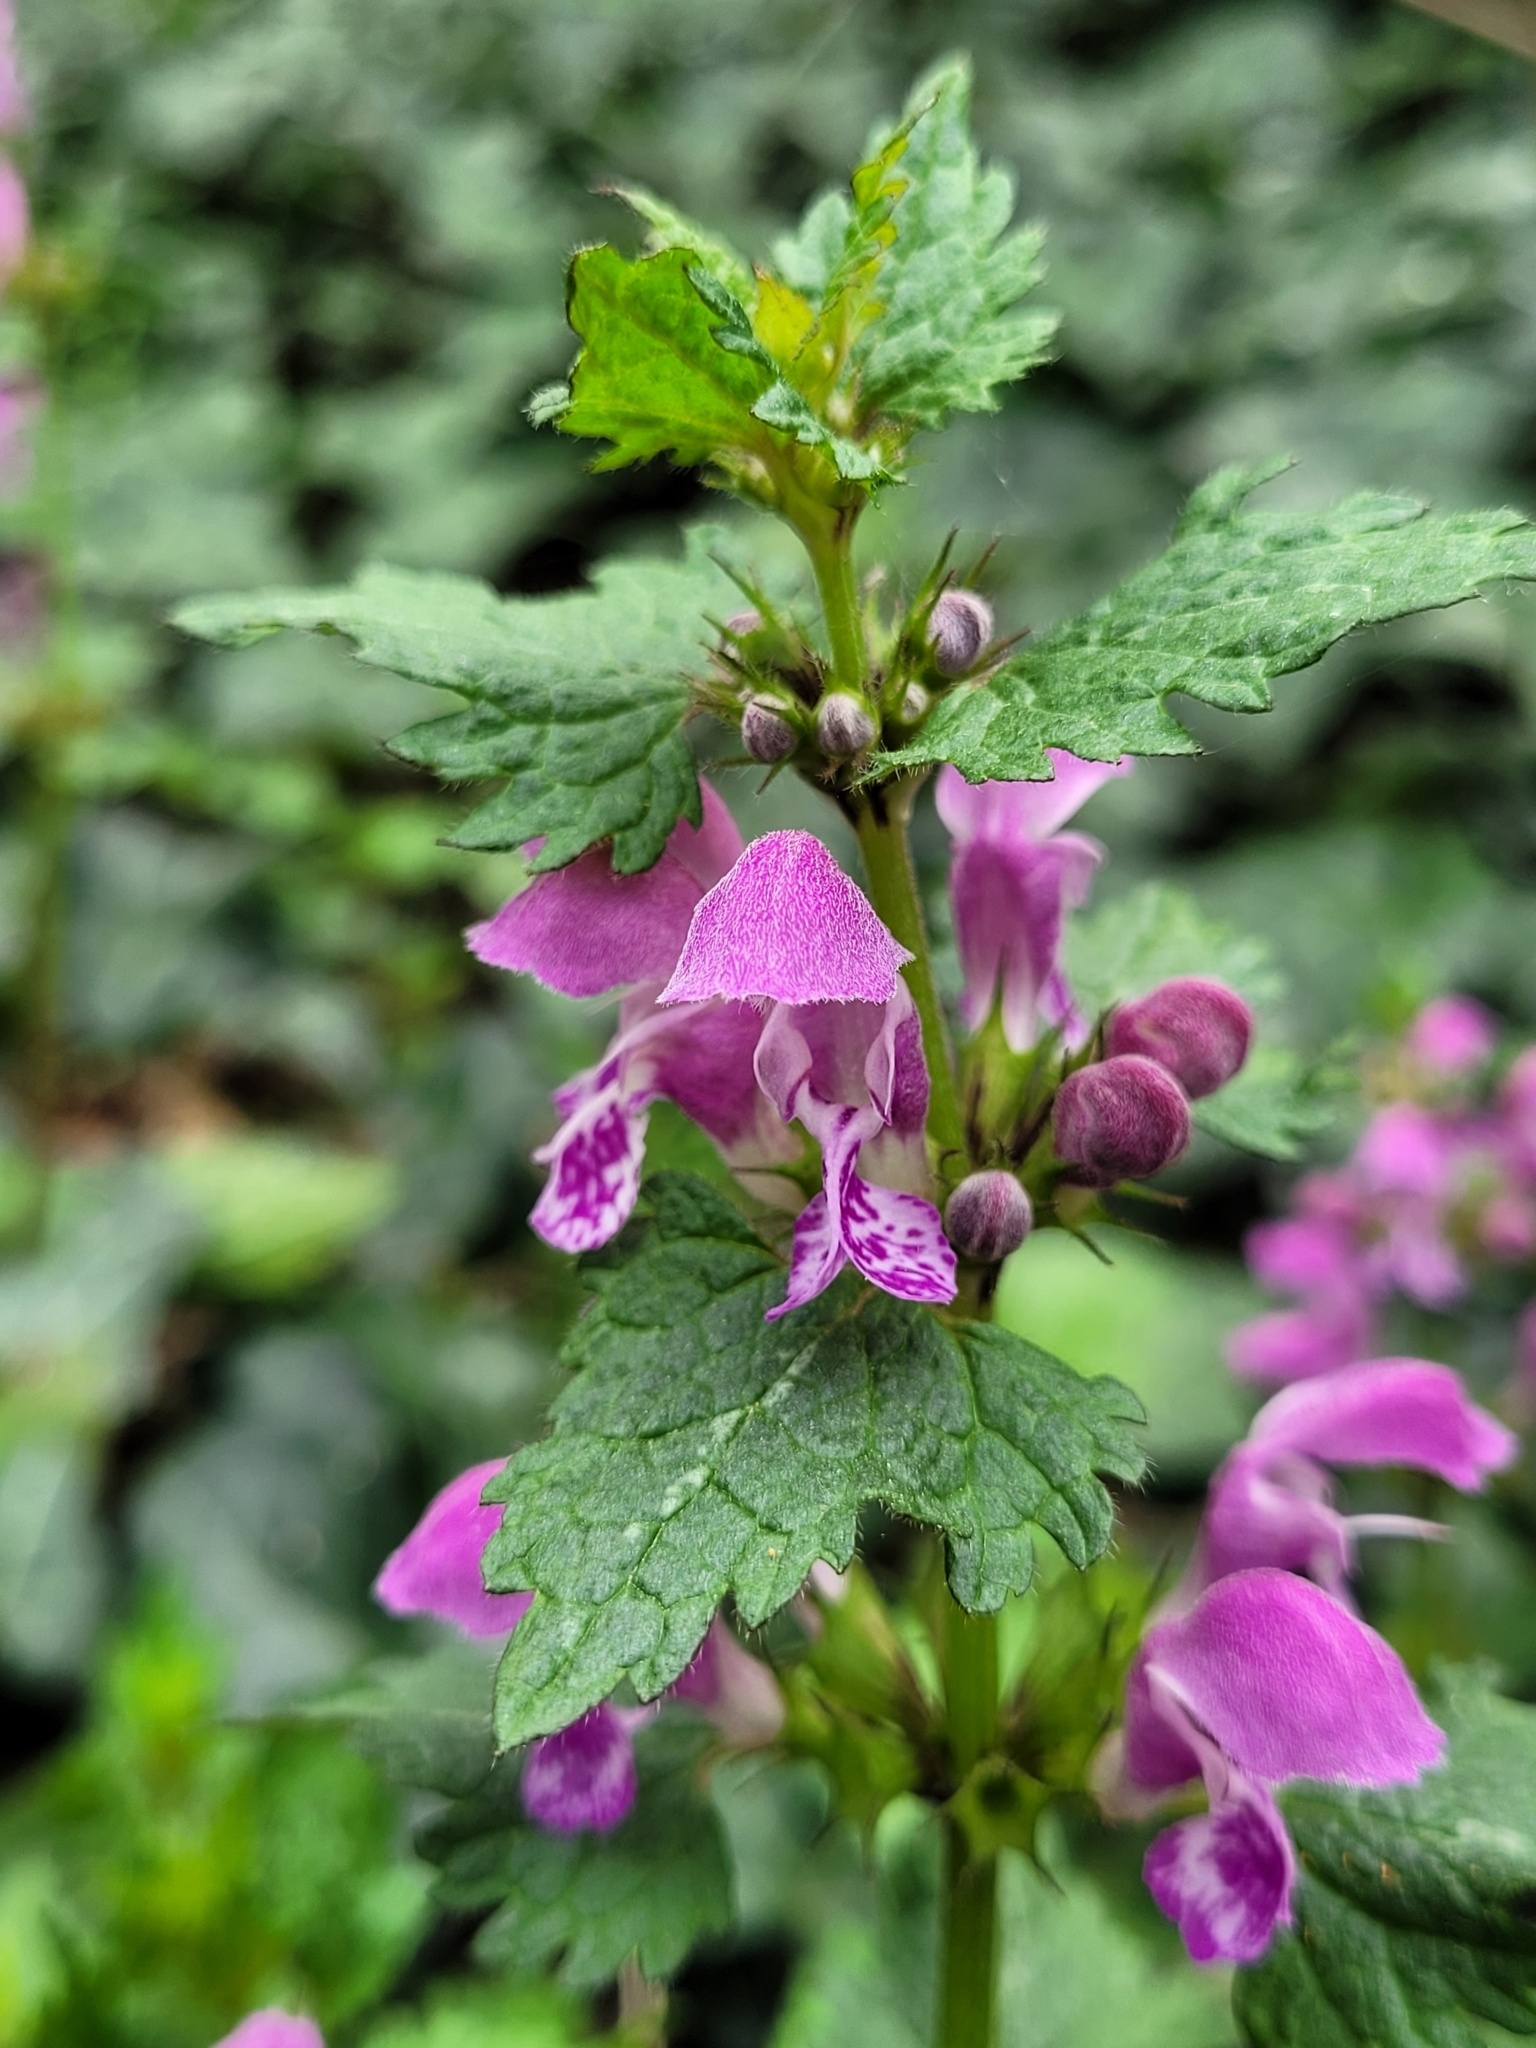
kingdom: Plantae
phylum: Tracheophyta
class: Magnoliopsida
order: Lamiales
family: Lamiaceae
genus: Lamium
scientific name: Lamium maculatum
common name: Spotted dead-nettle
